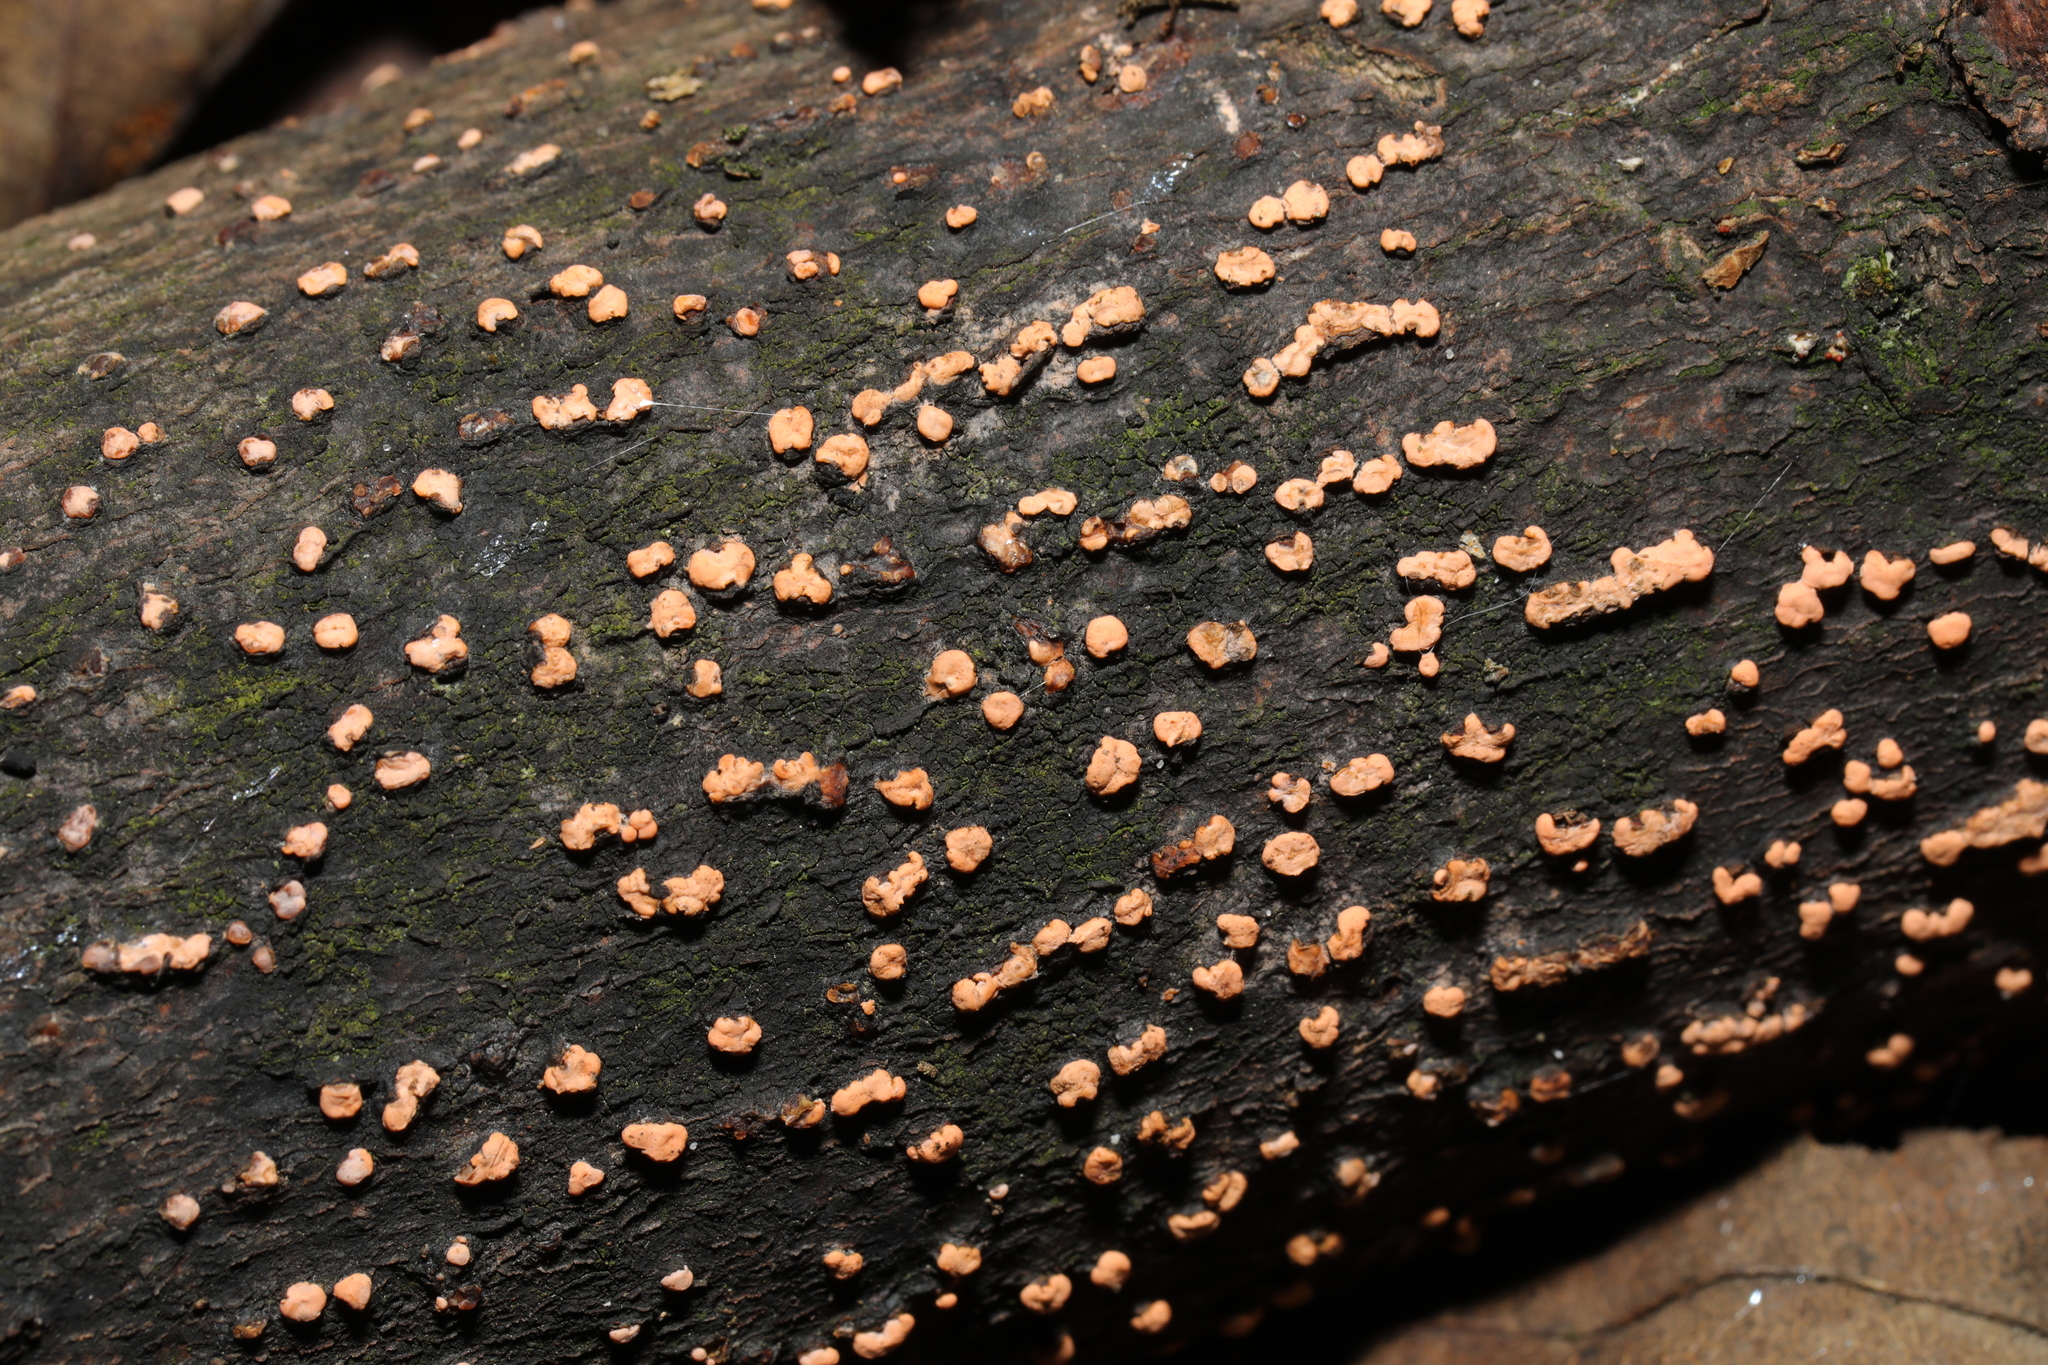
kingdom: Fungi
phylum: Ascomycota
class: Sordariomycetes
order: Hypocreales
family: Nectriaceae
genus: Nectria
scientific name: Nectria cinnabarina
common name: Coral spot
